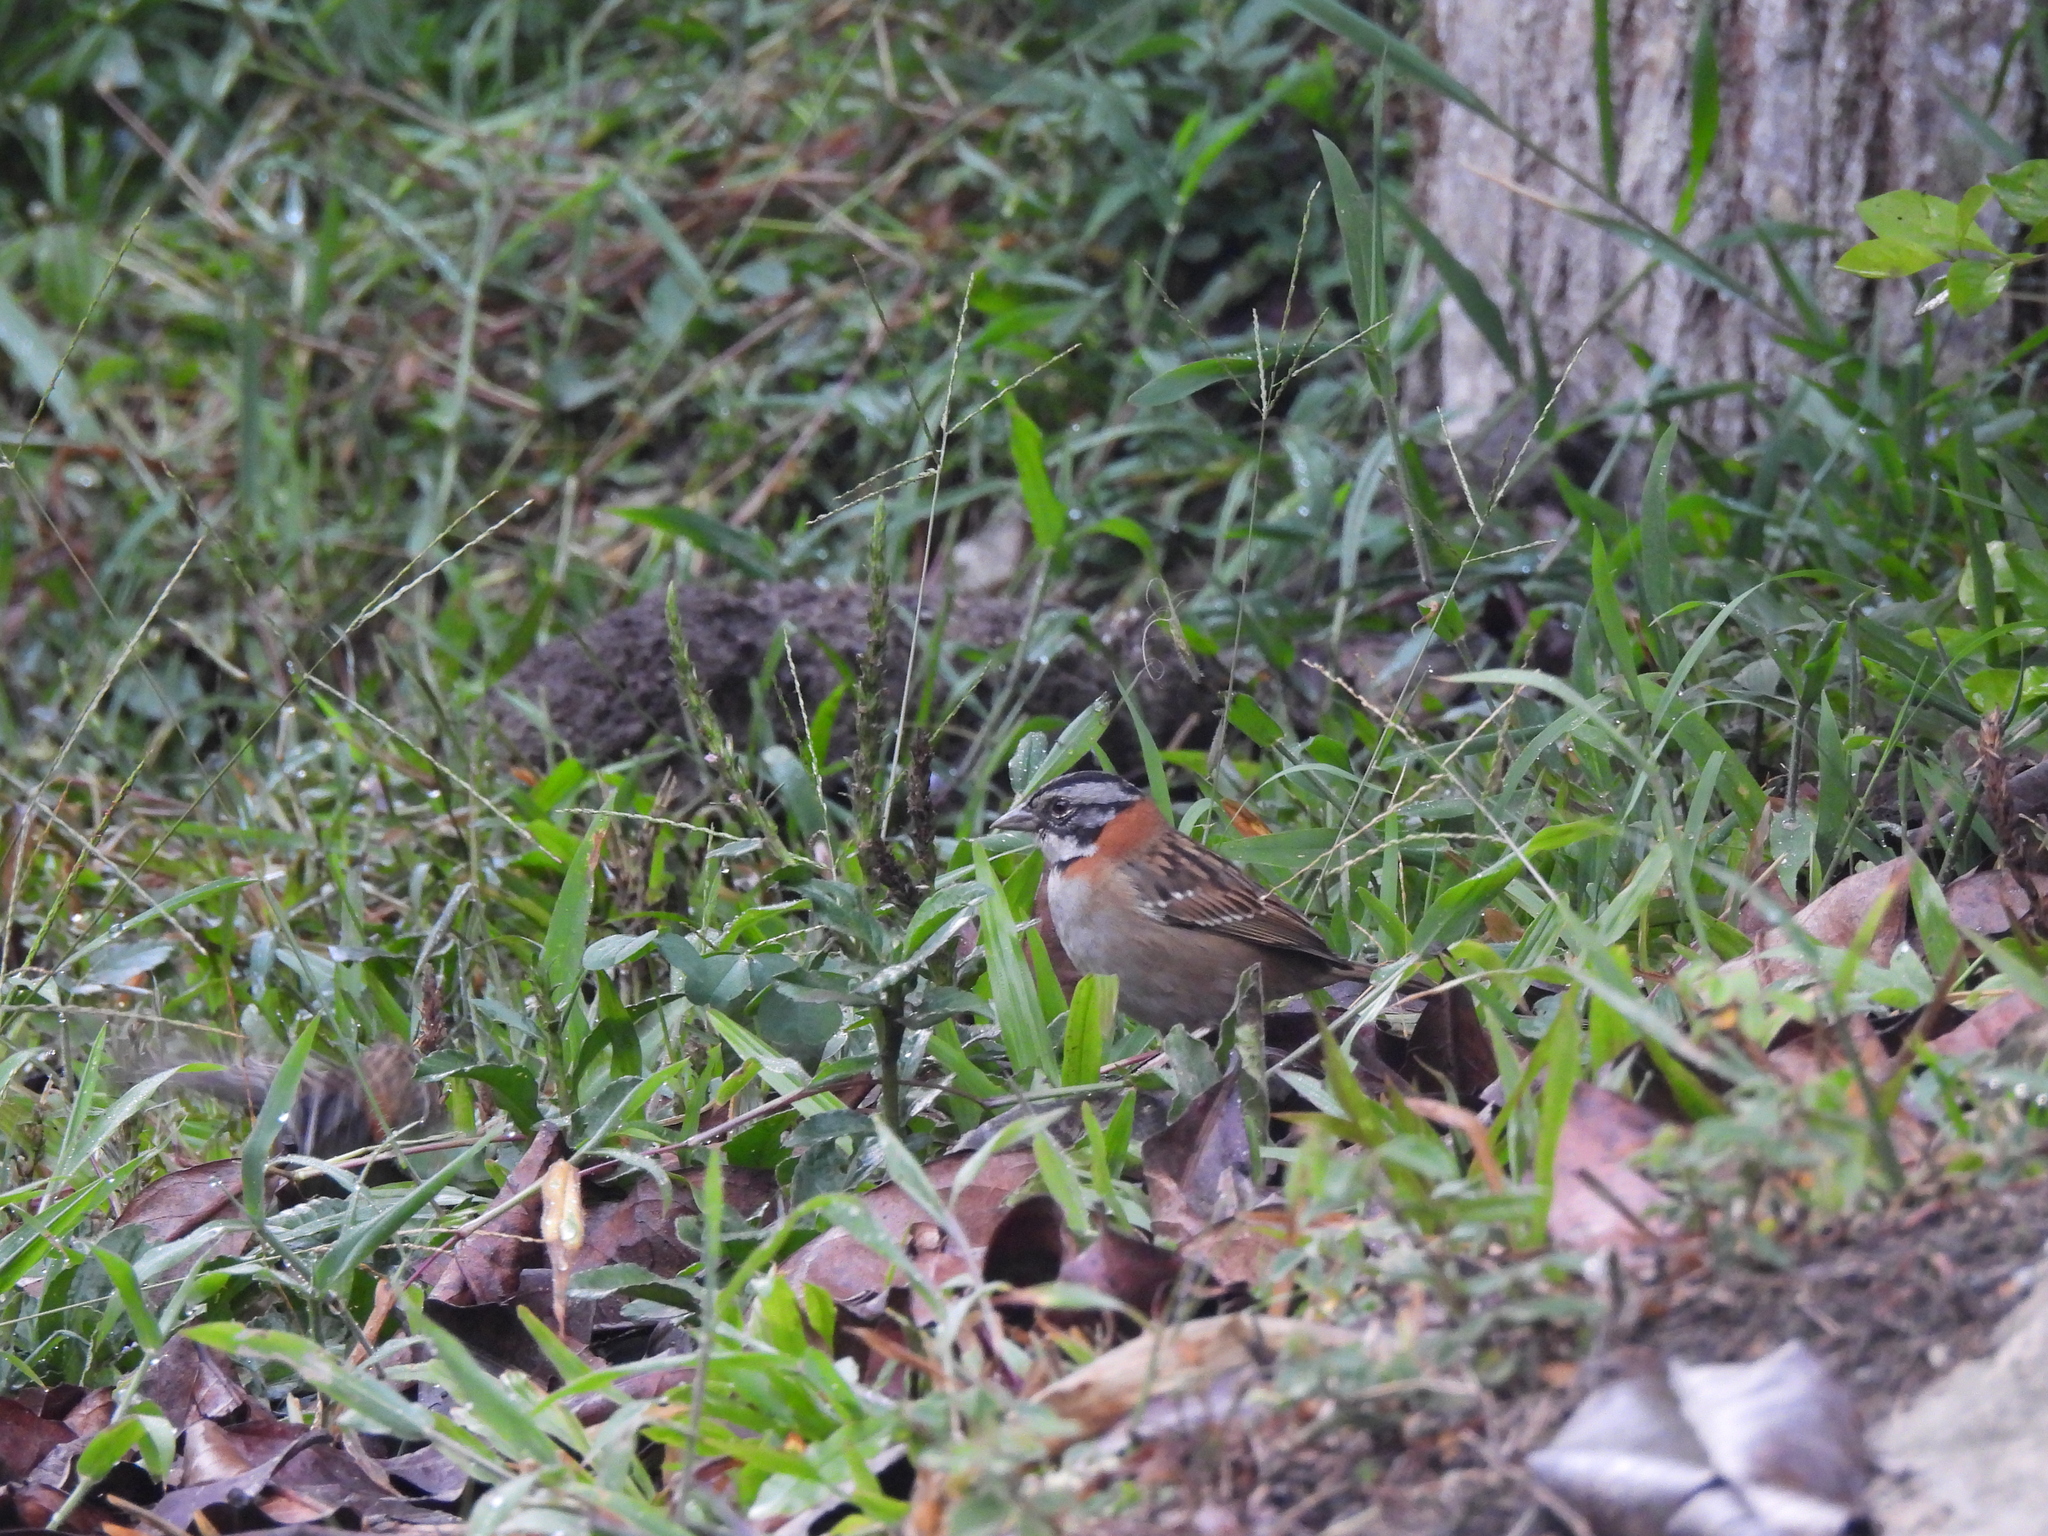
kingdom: Animalia
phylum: Chordata
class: Aves
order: Passeriformes
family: Passerellidae
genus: Zonotrichia
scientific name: Zonotrichia capensis
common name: Rufous-collared sparrow
